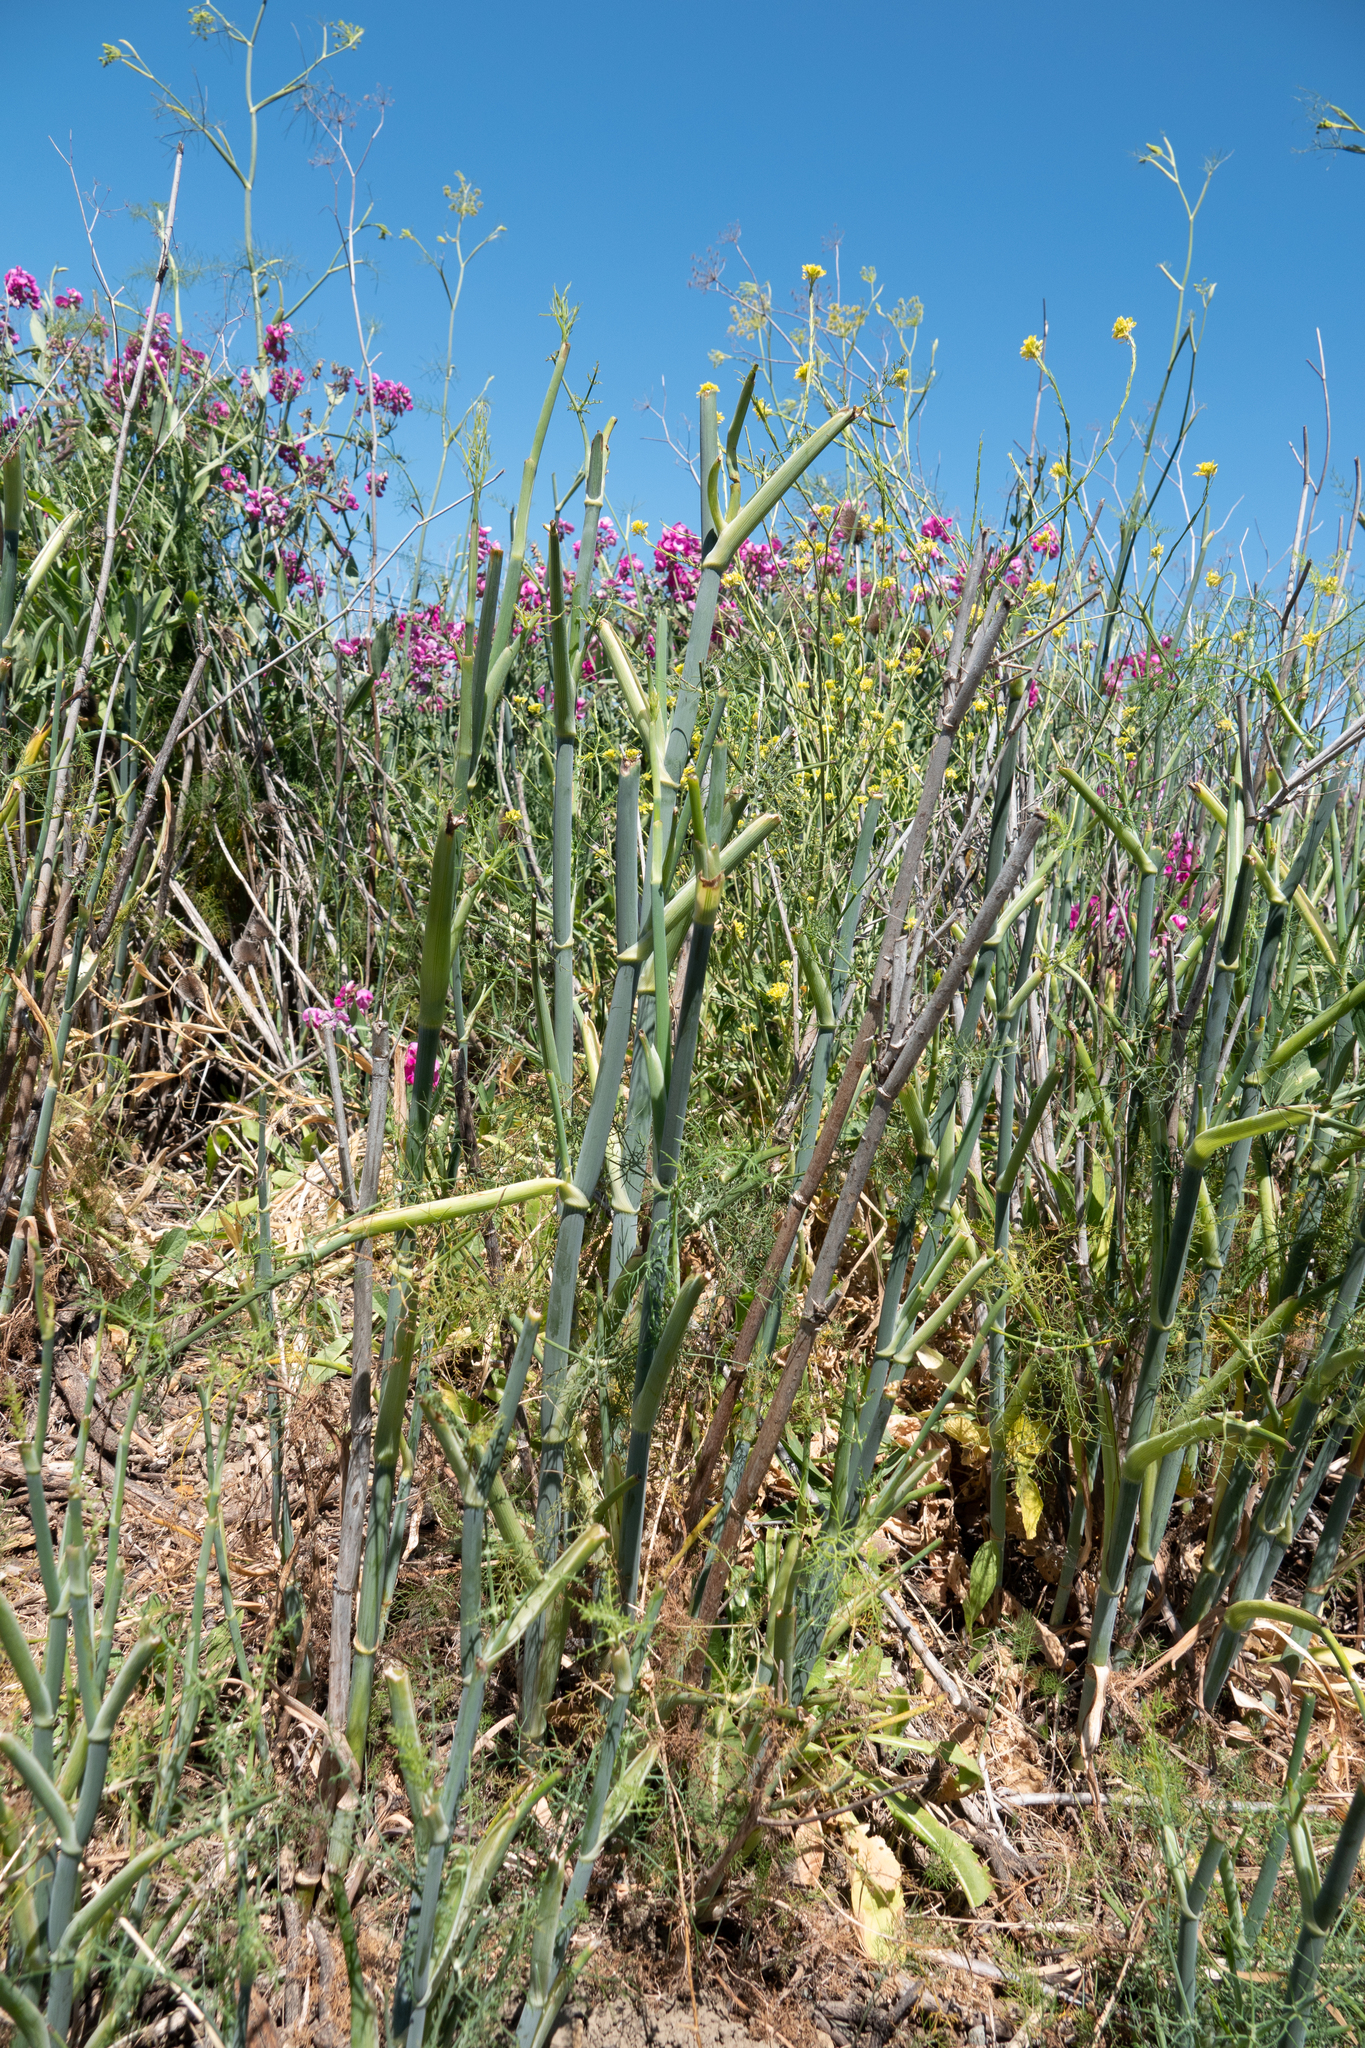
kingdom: Plantae
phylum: Tracheophyta
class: Magnoliopsida
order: Apiales
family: Apiaceae
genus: Foeniculum
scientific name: Foeniculum vulgare
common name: Fennel
